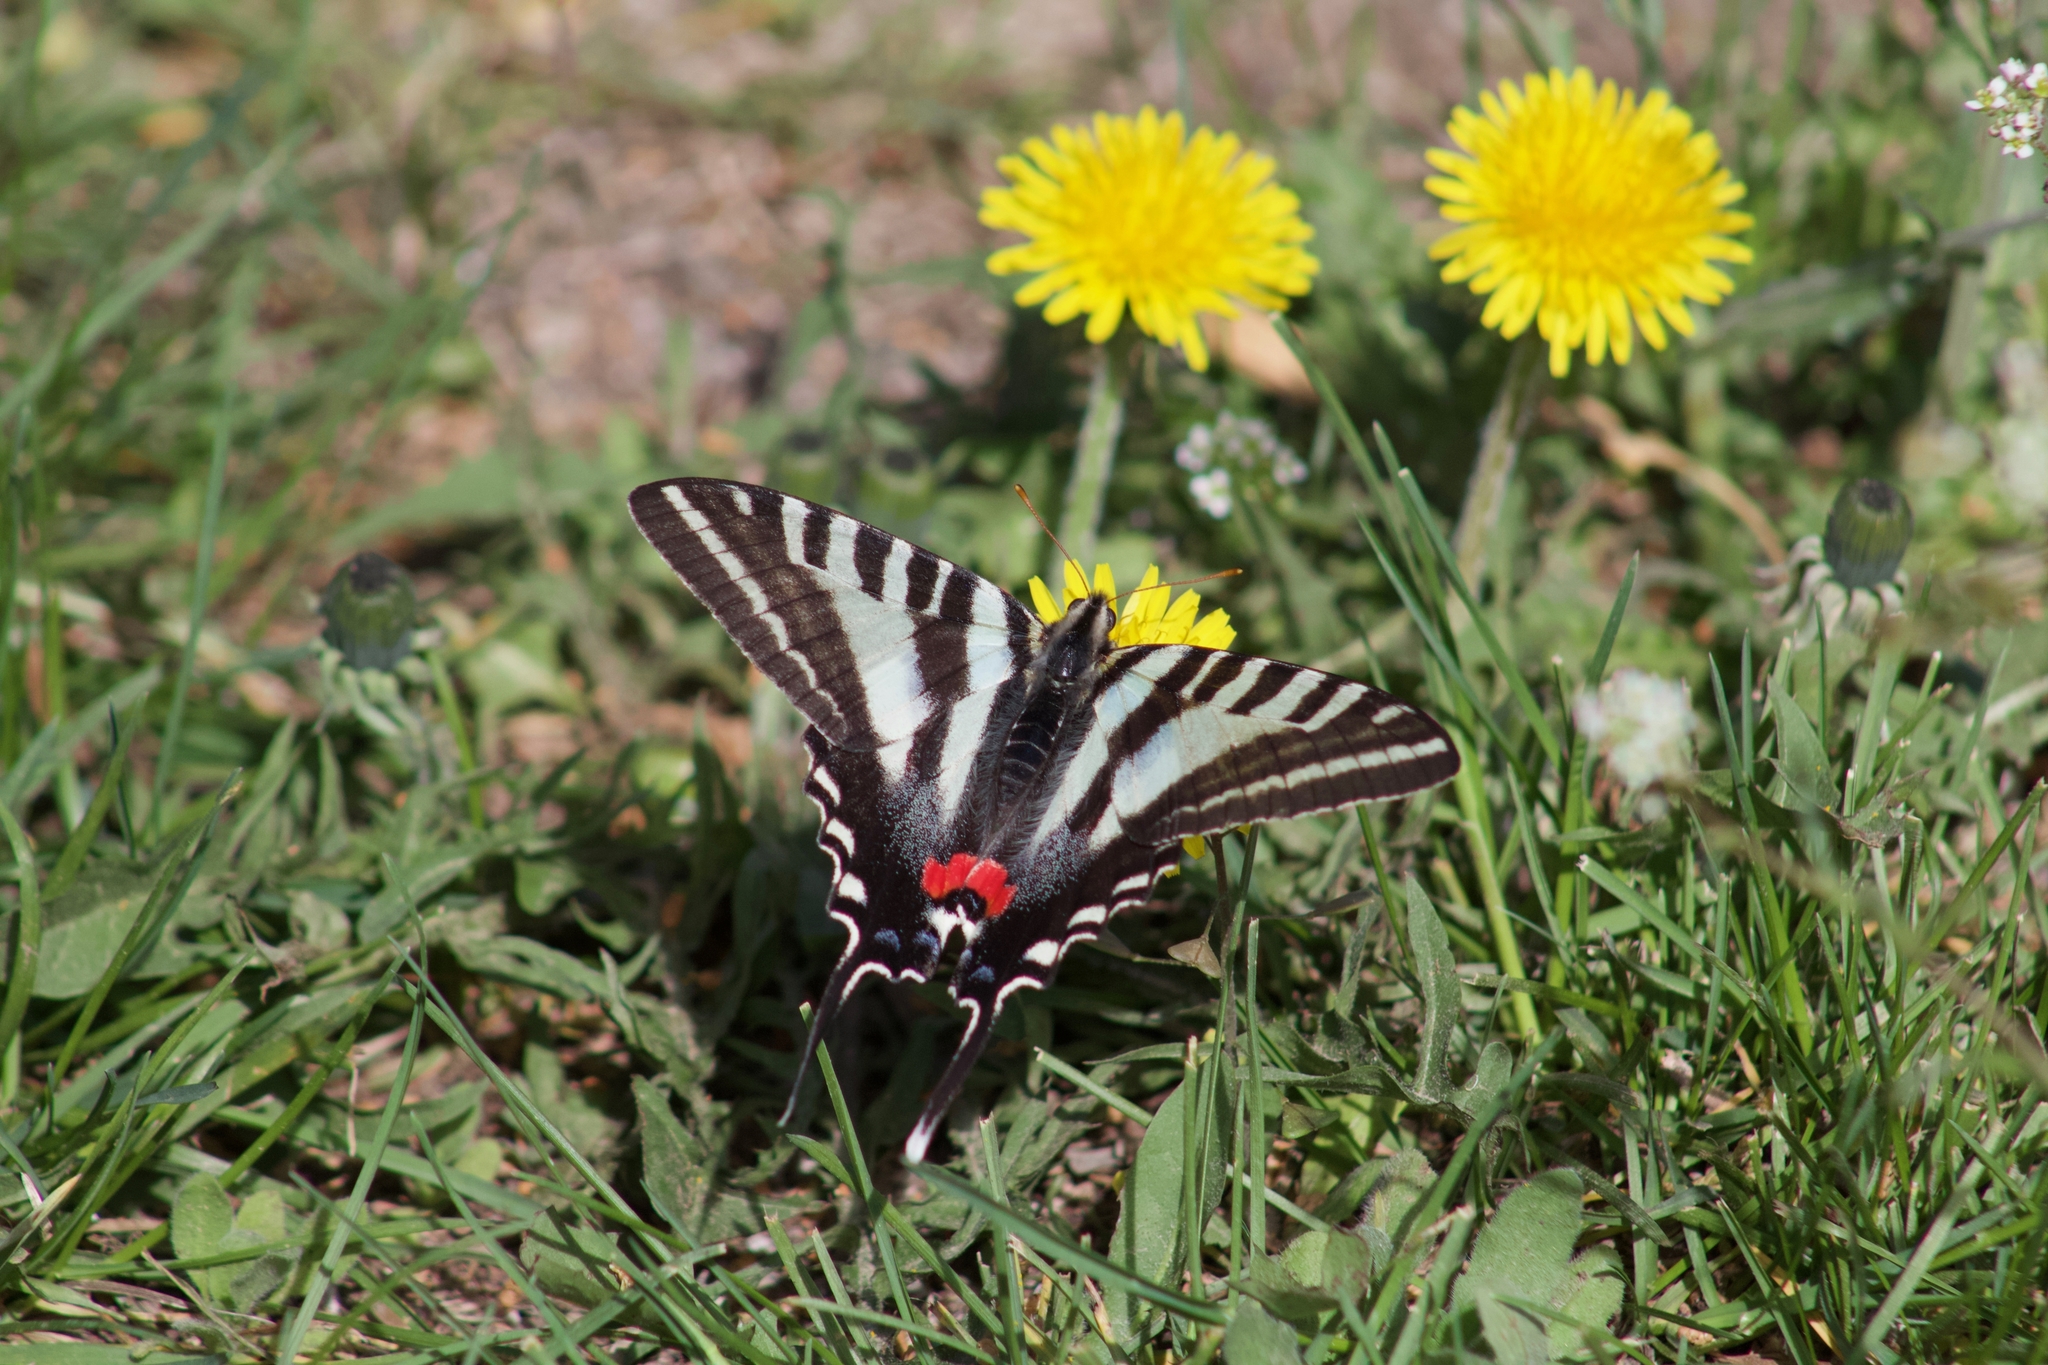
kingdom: Animalia
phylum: Arthropoda
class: Insecta
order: Lepidoptera
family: Papilionidae
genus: Protographium
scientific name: Protographium marcellus
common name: Zebra swallowtail
